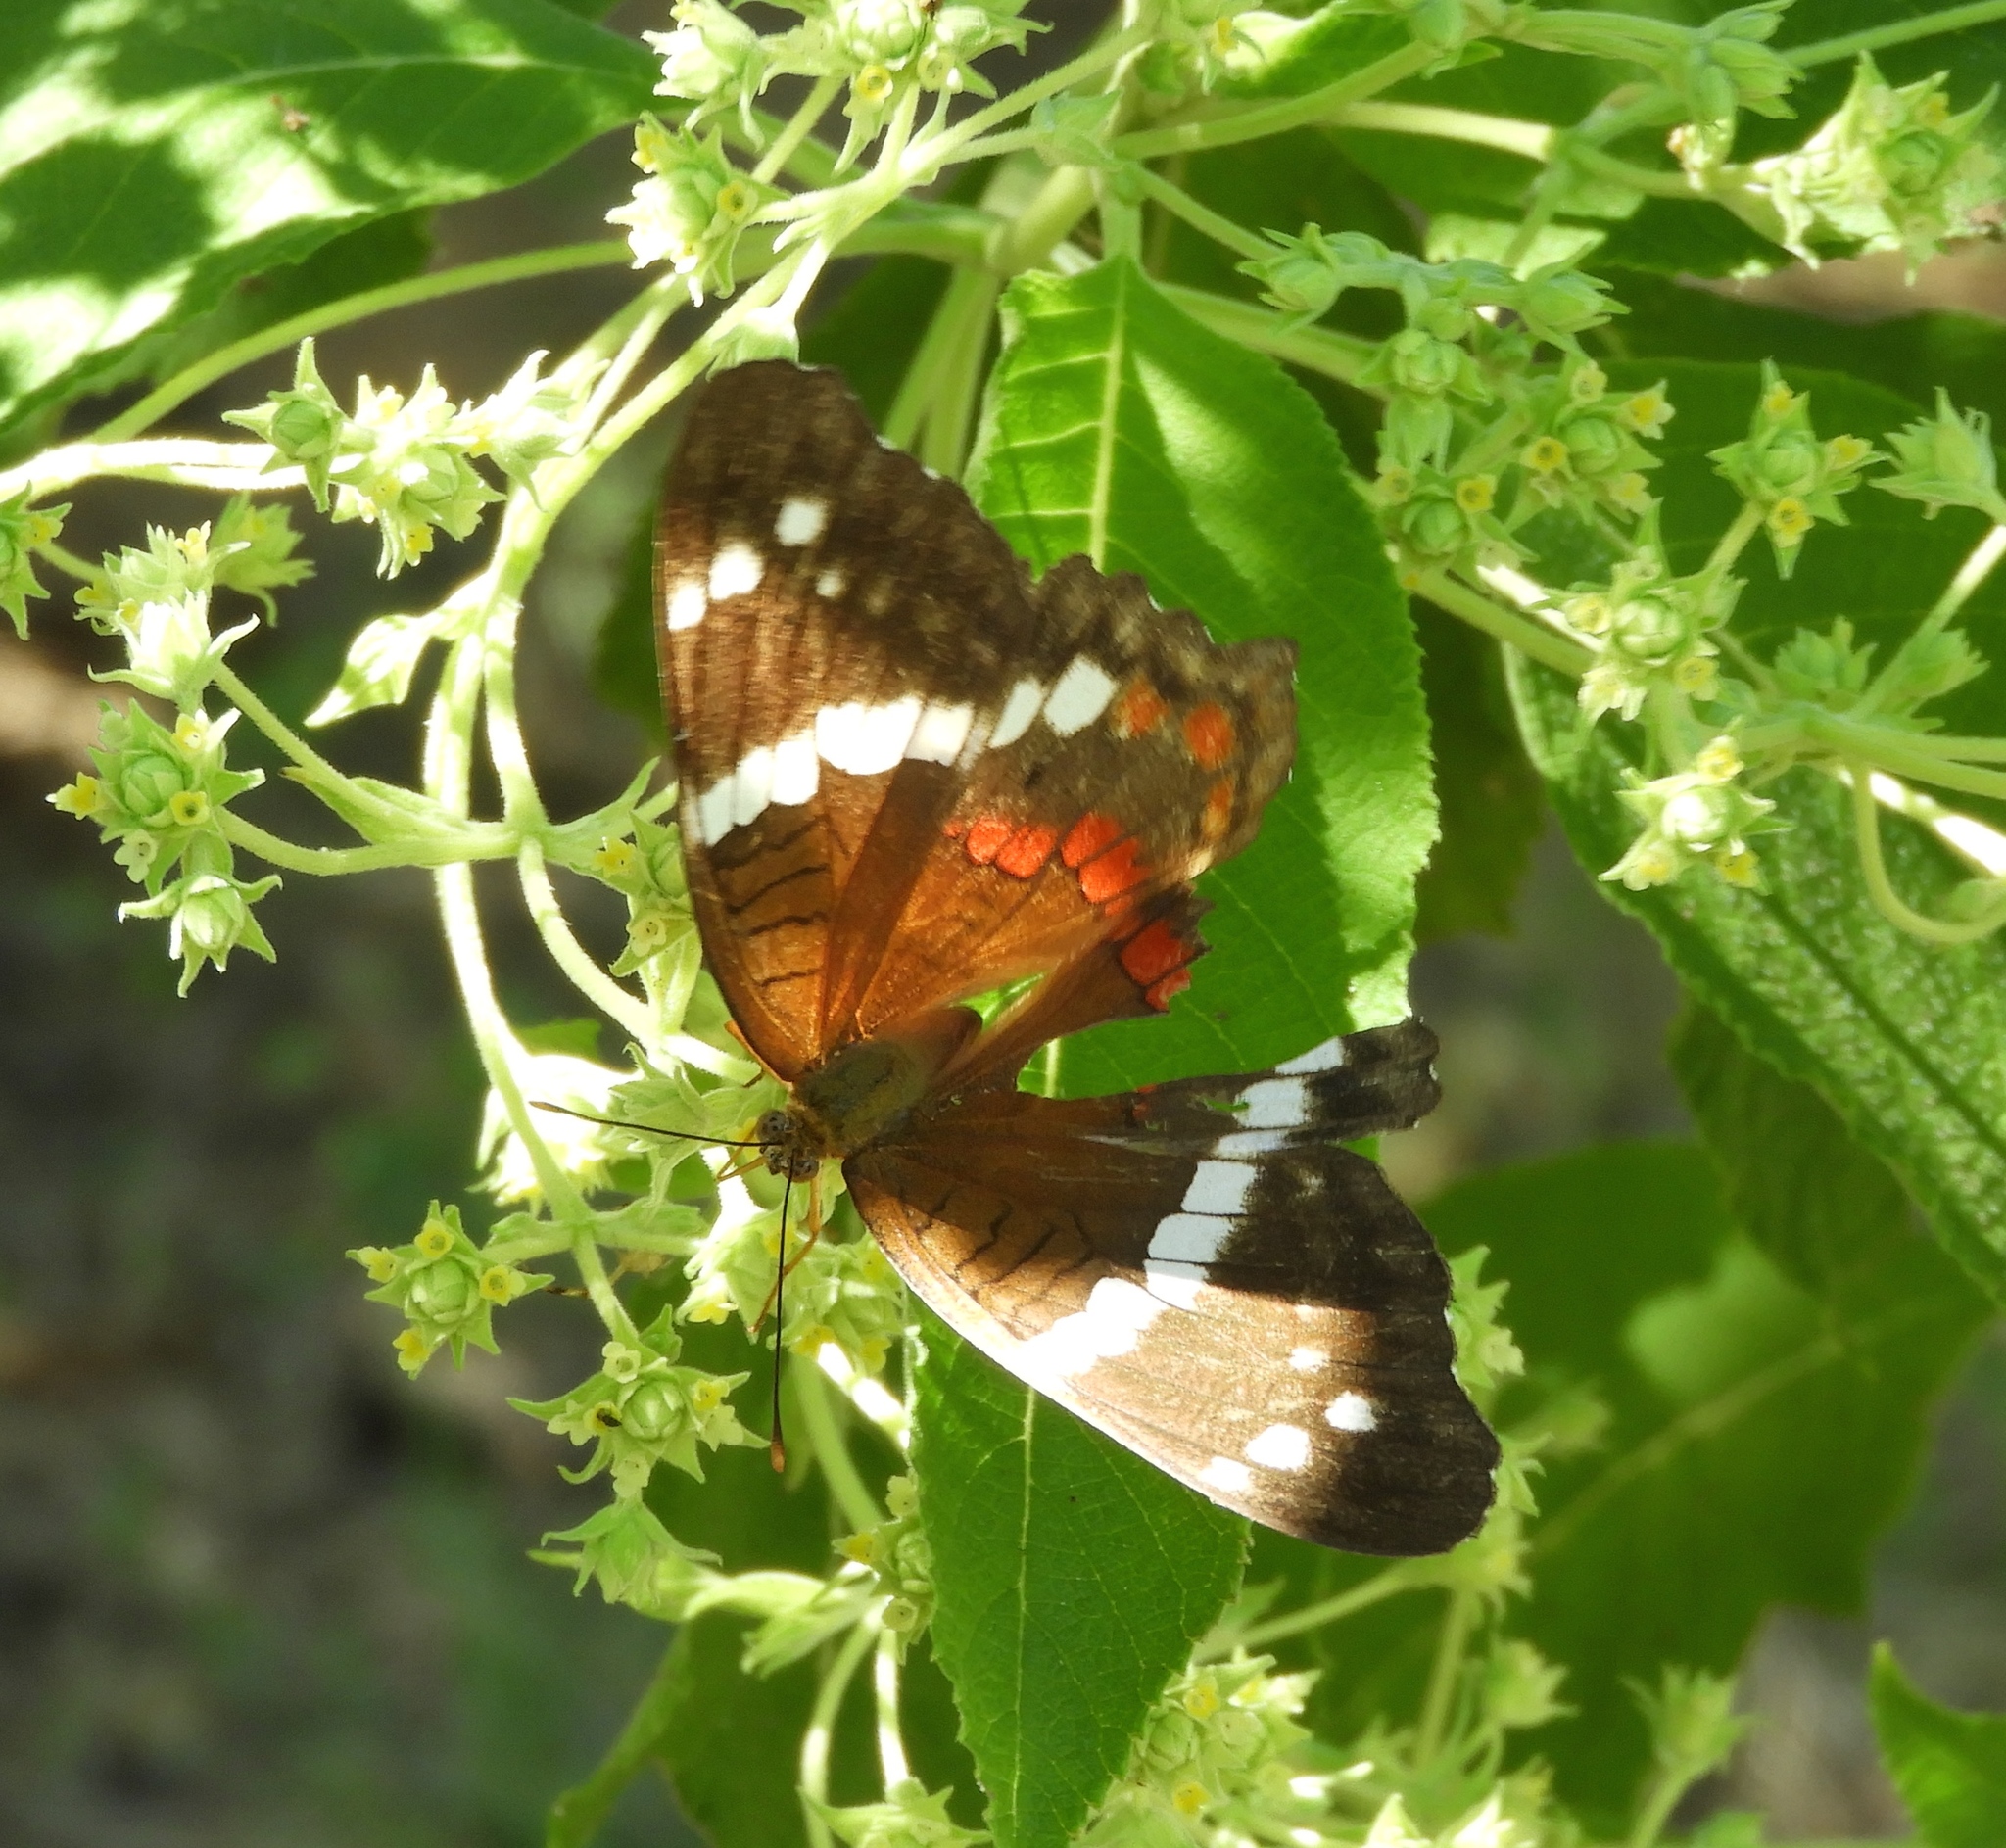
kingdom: Animalia
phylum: Arthropoda
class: Insecta
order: Lepidoptera
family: Nymphalidae
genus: Anartia
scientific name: Anartia fatima
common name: Banded peacock
